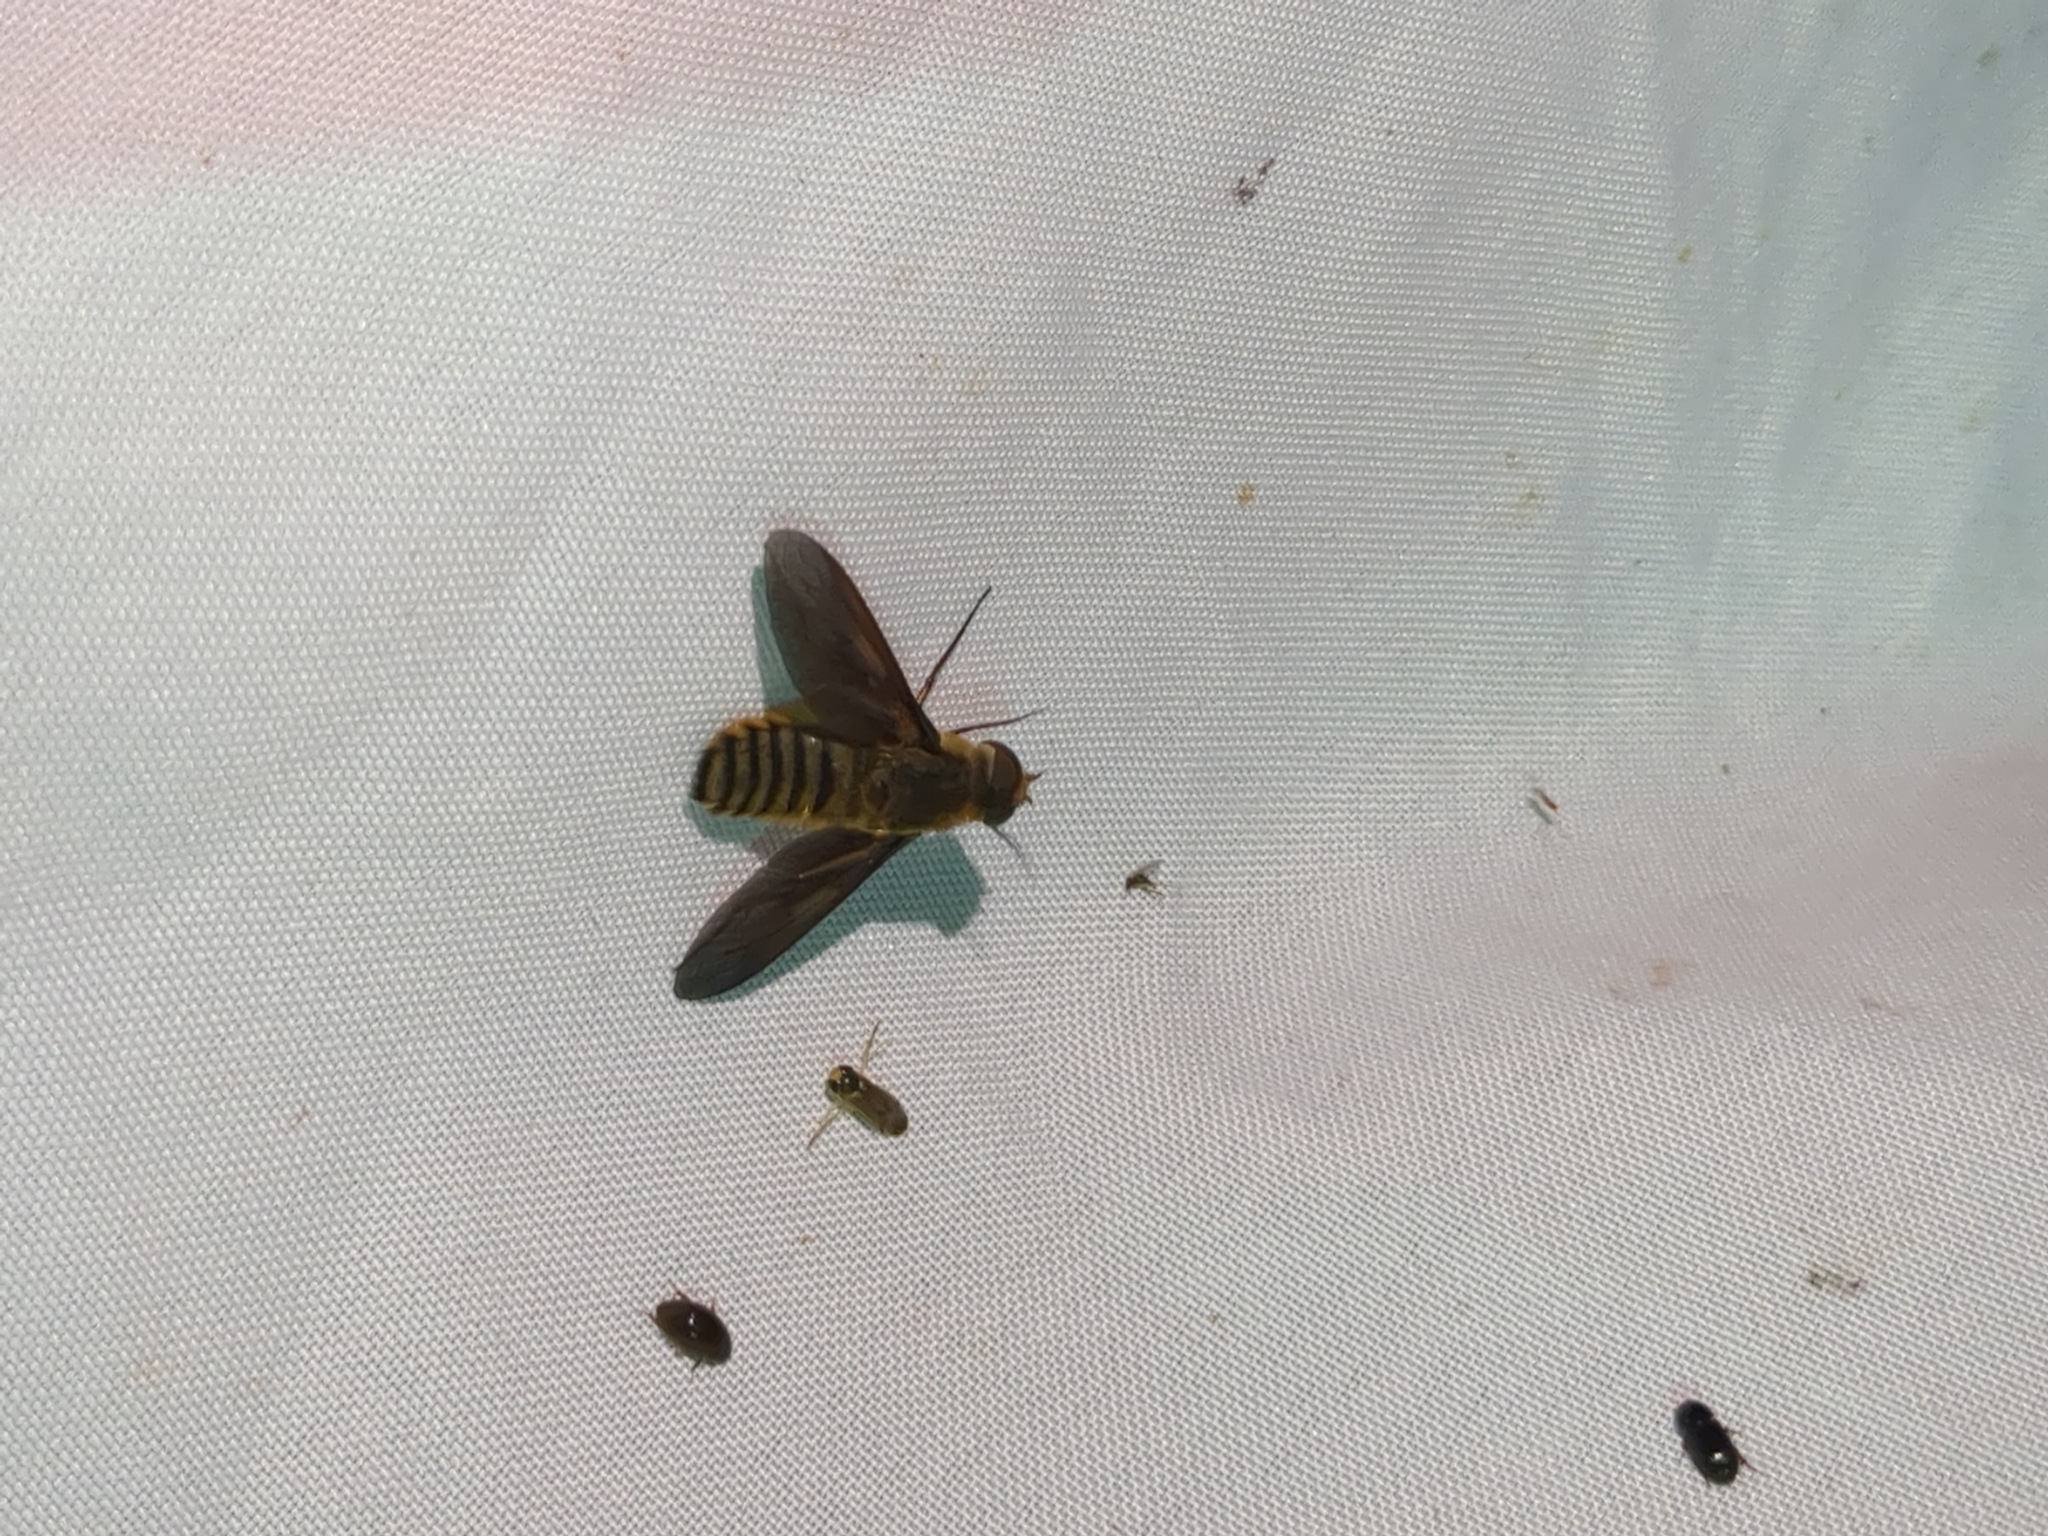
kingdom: Animalia
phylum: Arthropoda
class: Insecta
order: Diptera
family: Bombyliidae
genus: Poecilanthrax
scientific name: Poecilanthrax lucifer
